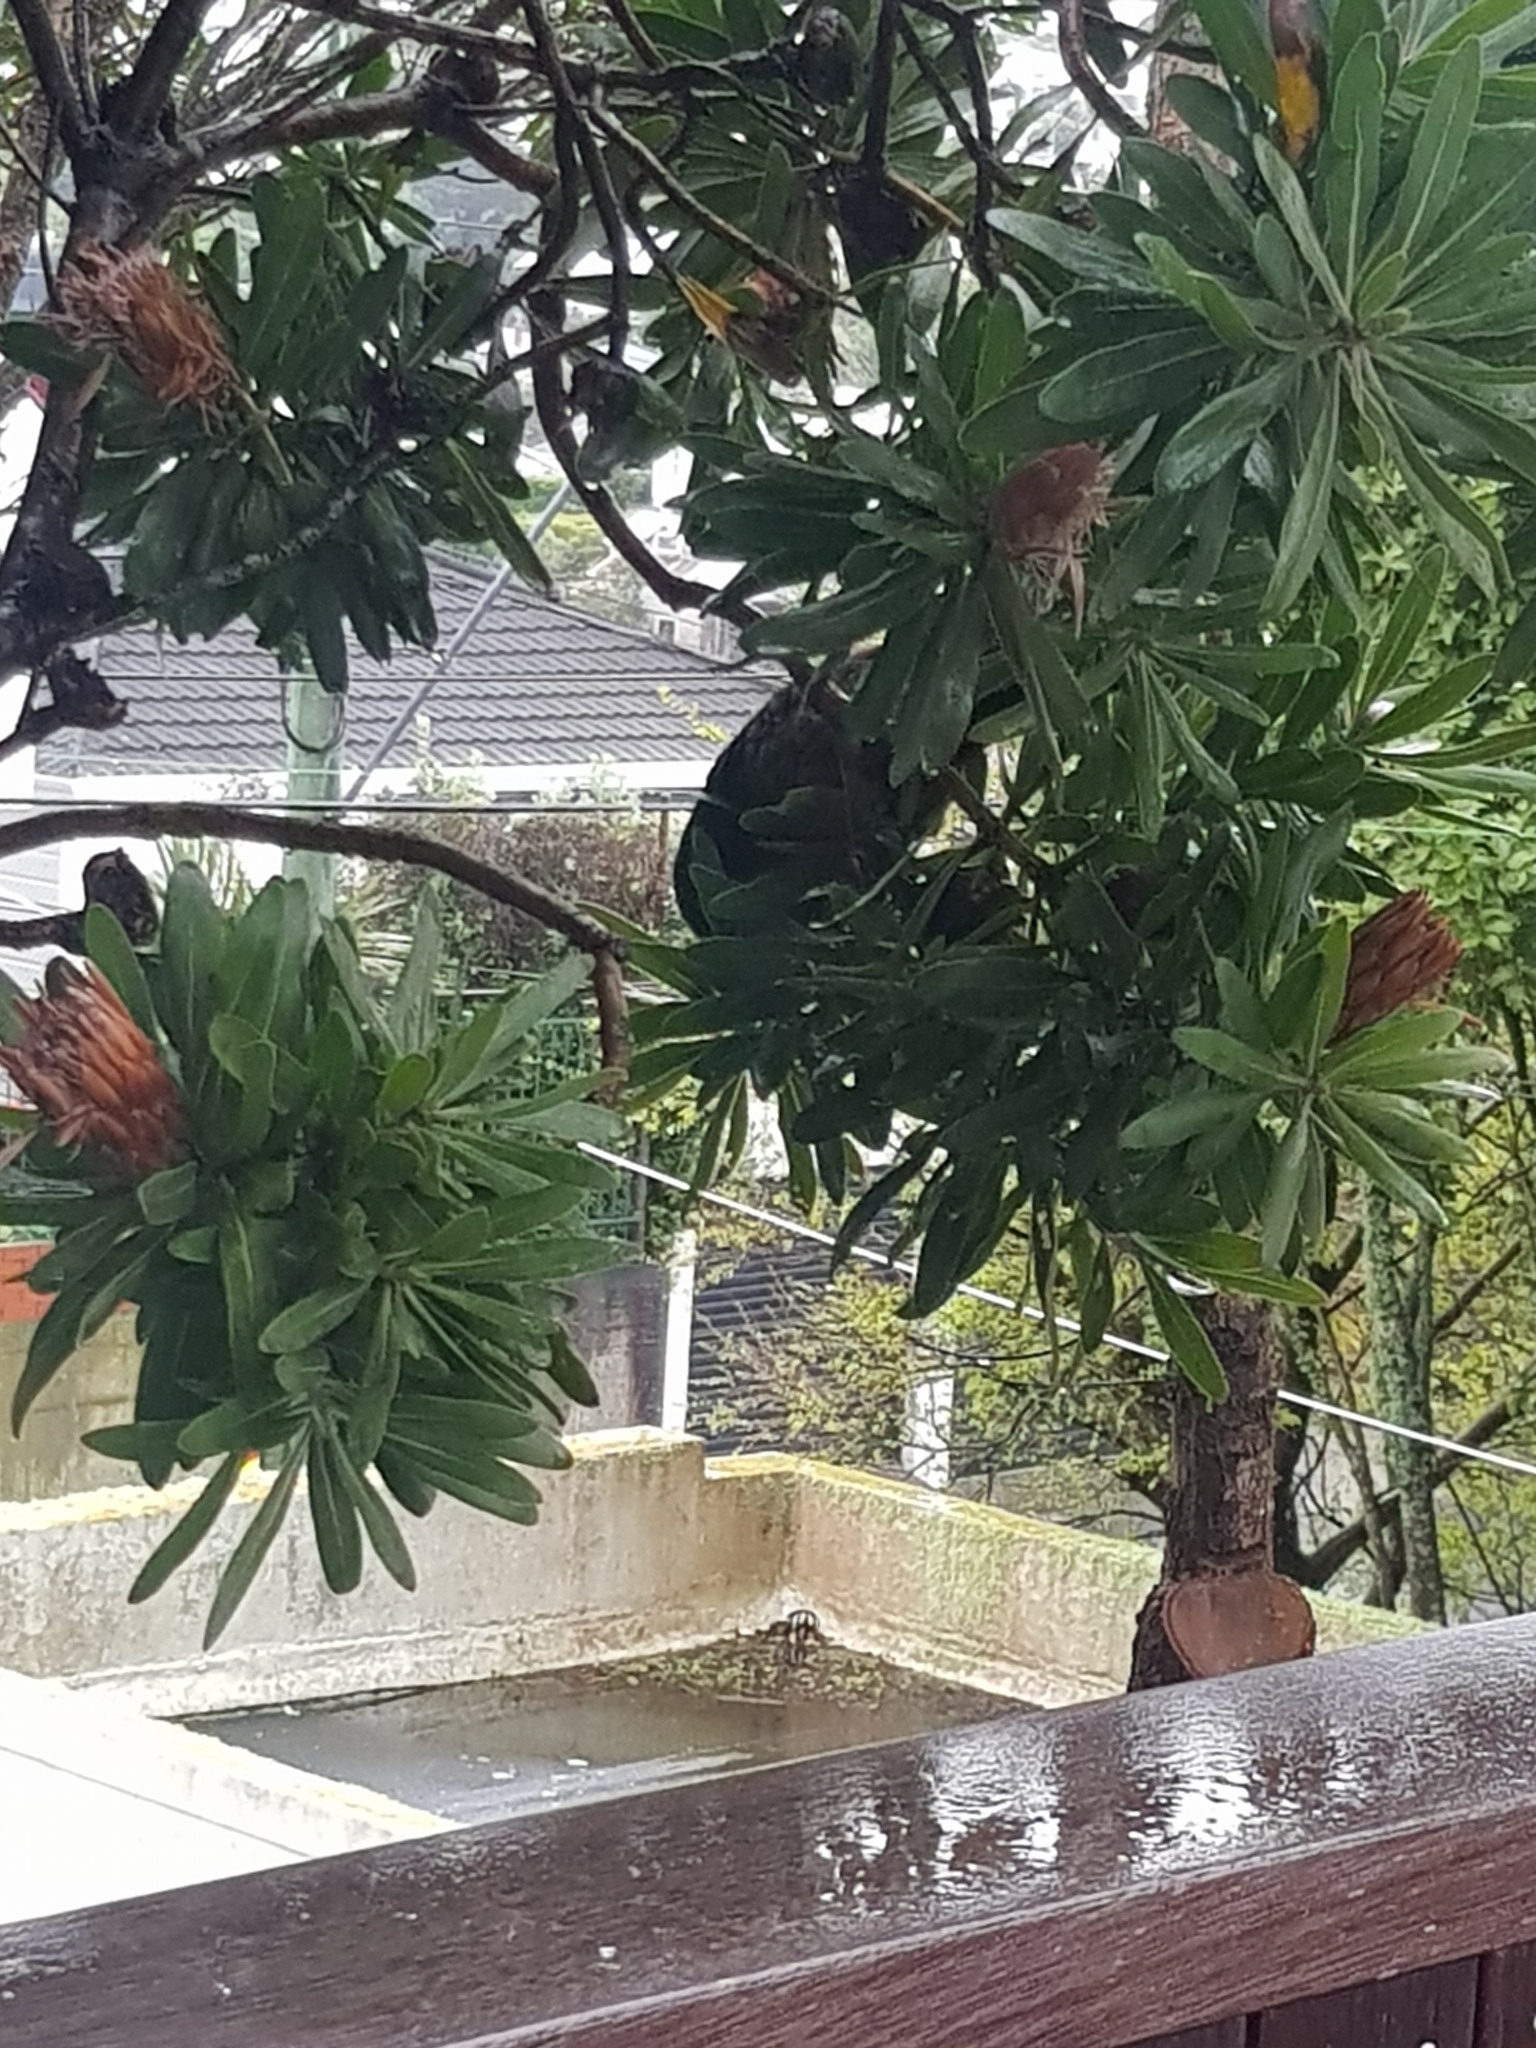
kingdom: Animalia
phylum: Chordata
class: Aves
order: Psittaciformes
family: Psittacidae
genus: Nestor
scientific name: Nestor meridionalis
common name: New zealand kaka
